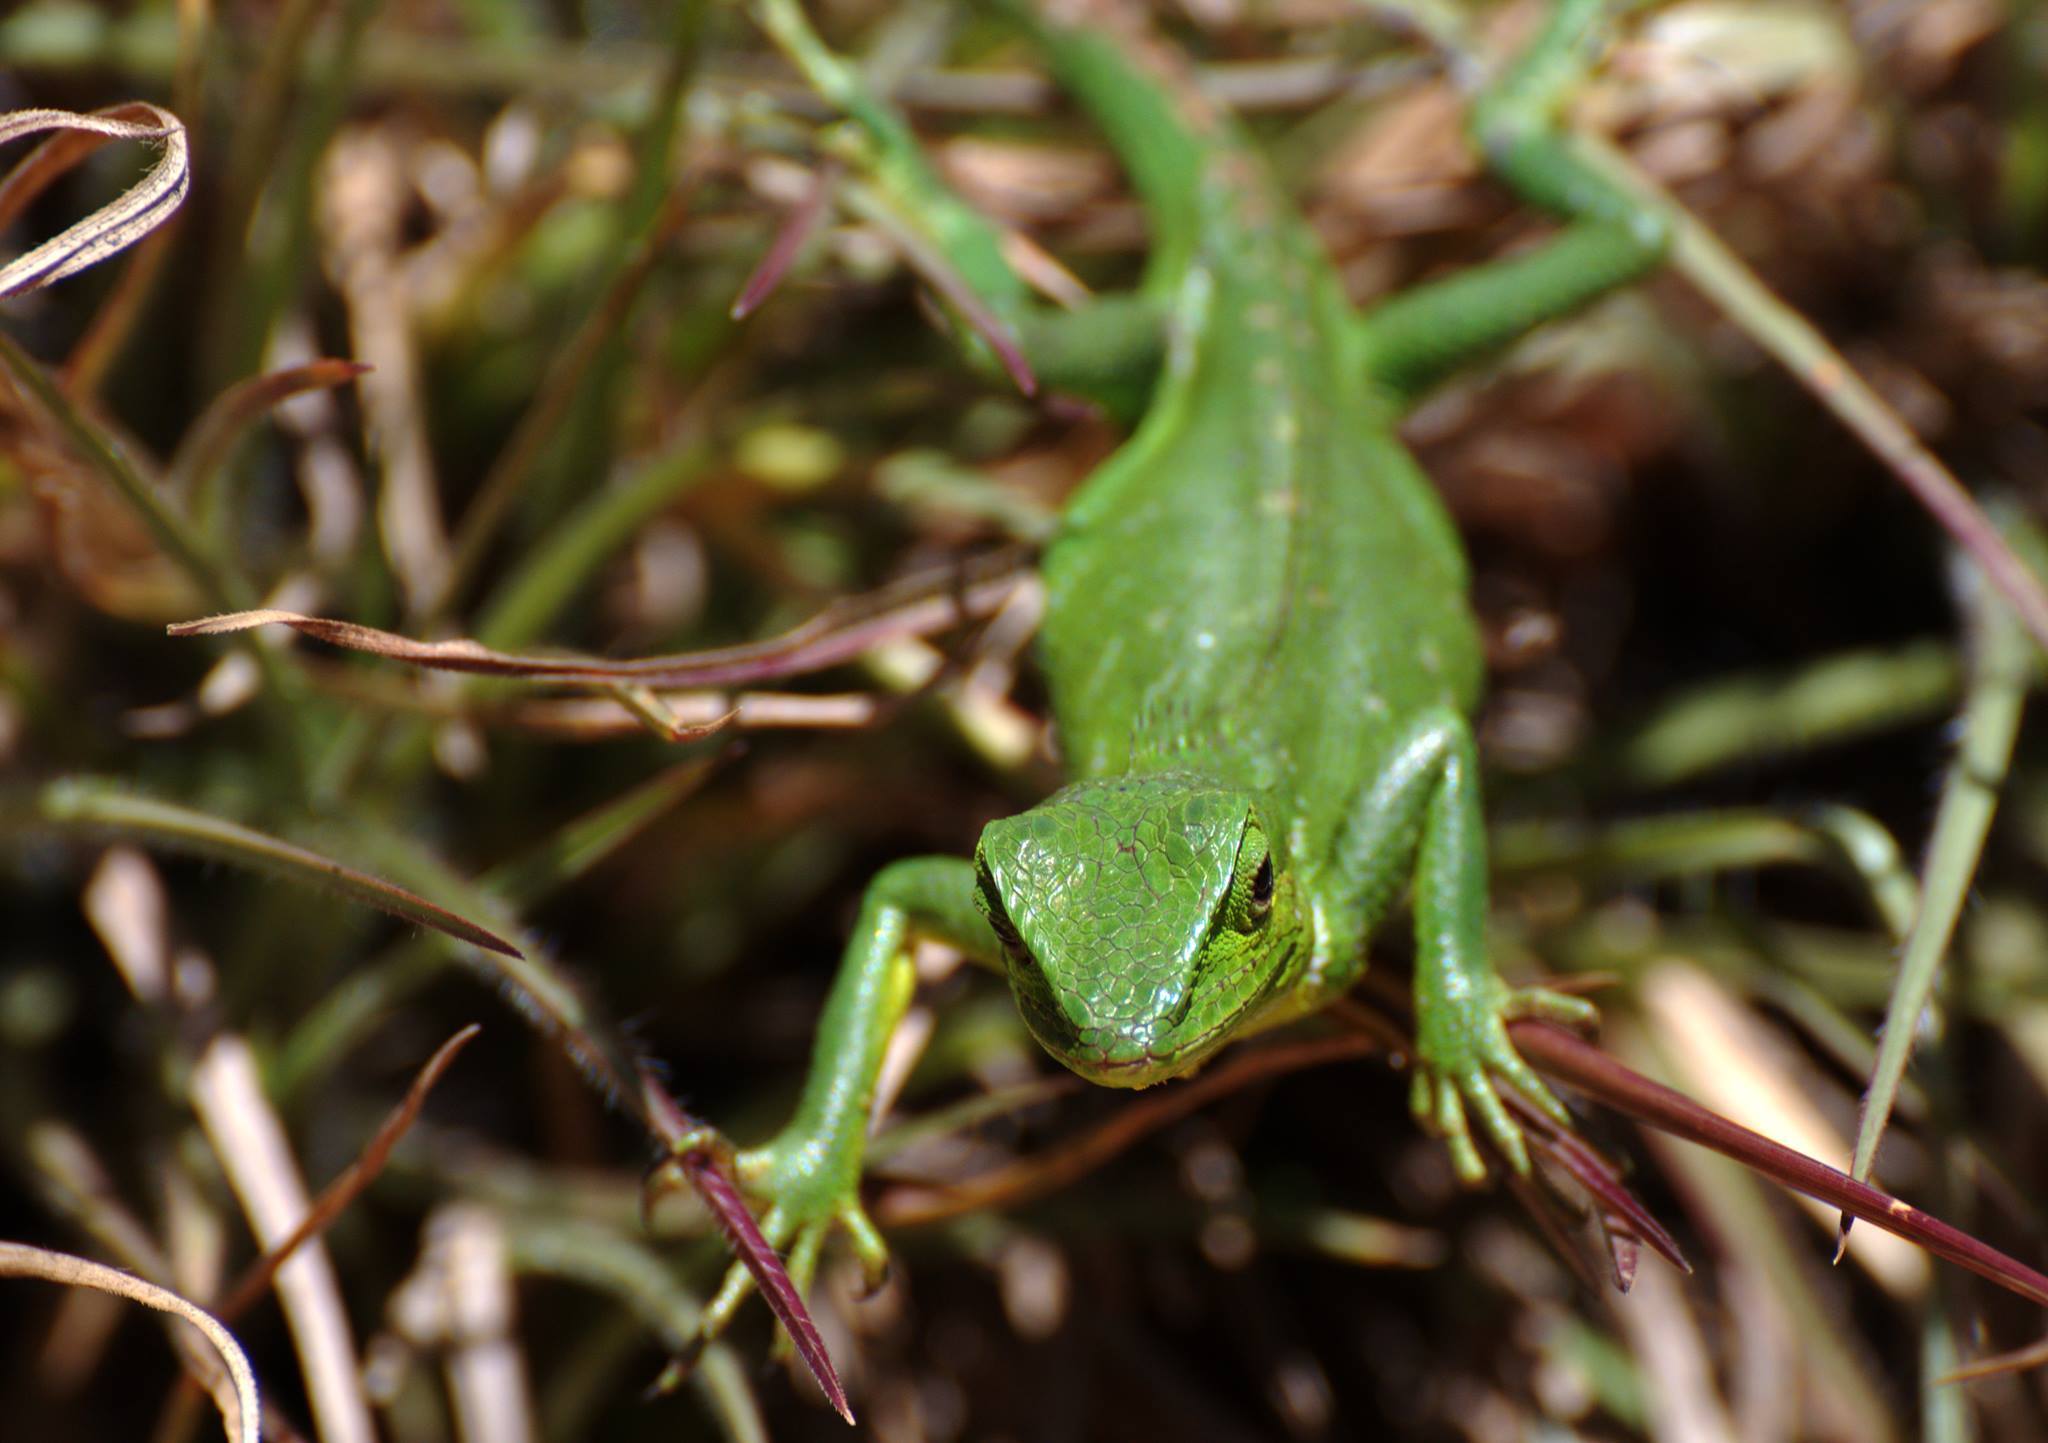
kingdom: Animalia
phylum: Chordata
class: Squamata
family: Agamidae
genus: Calotes
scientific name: Calotes nigrilabris
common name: Black-cheek lizard
